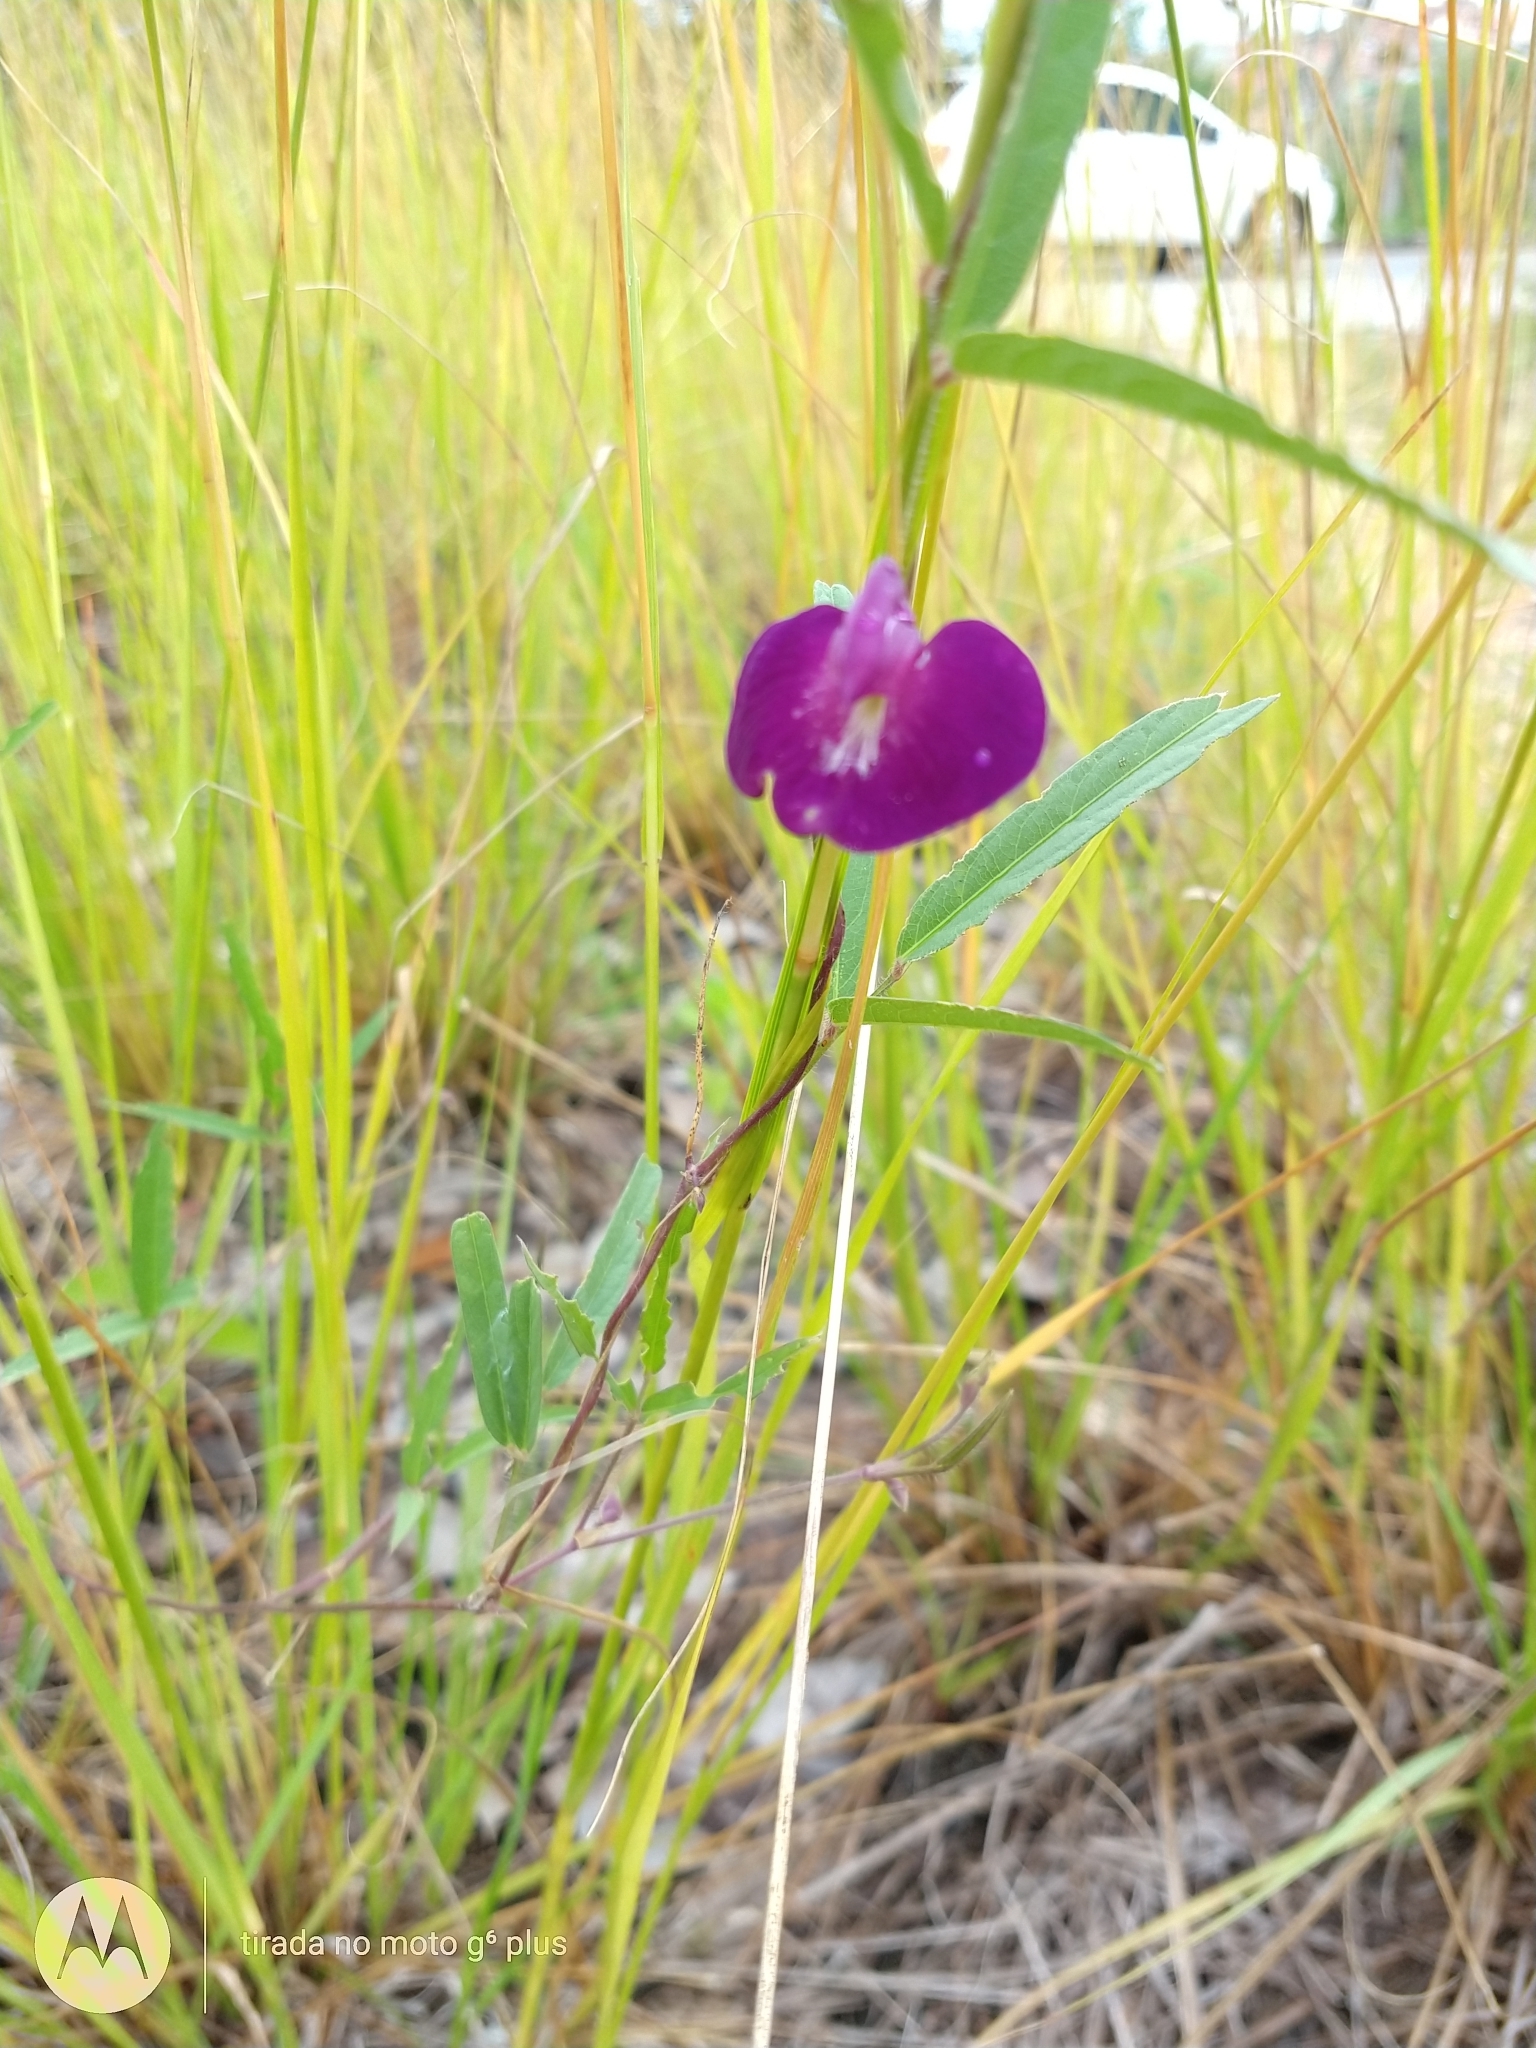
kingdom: Plantae
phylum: Tracheophyta
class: Magnoliopsida
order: Fabales
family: Fabaceae
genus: Centrosema
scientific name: Centrosema pascuorum
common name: Centurion
